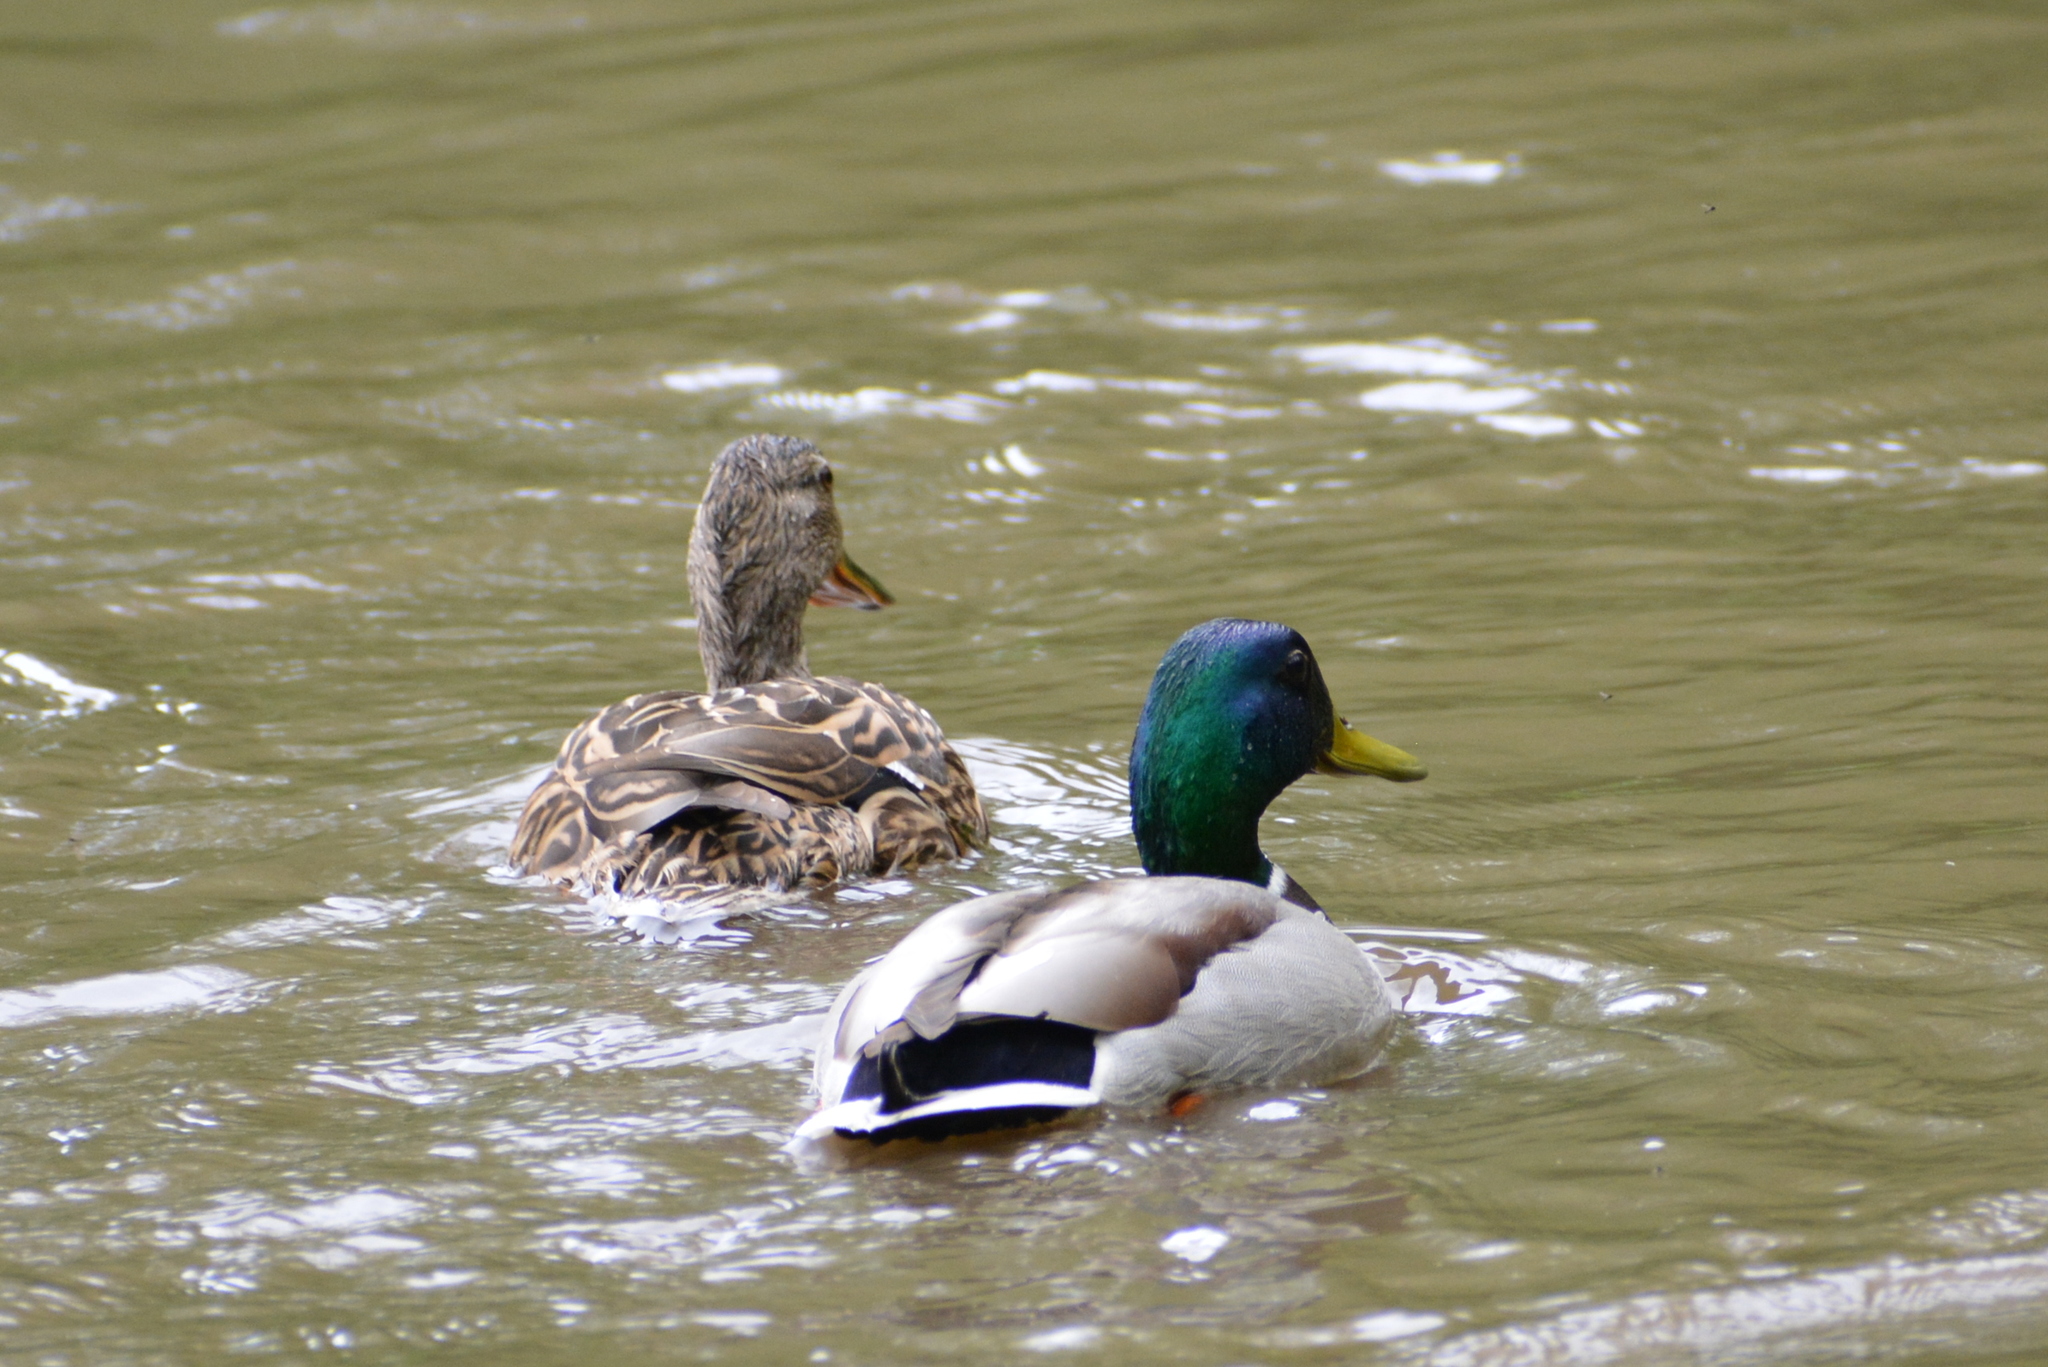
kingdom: Animalia
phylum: Chordata
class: Aves
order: Anseriformes
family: Anatidae
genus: Anas
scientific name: Anas platyrhynchos
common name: Mallard
